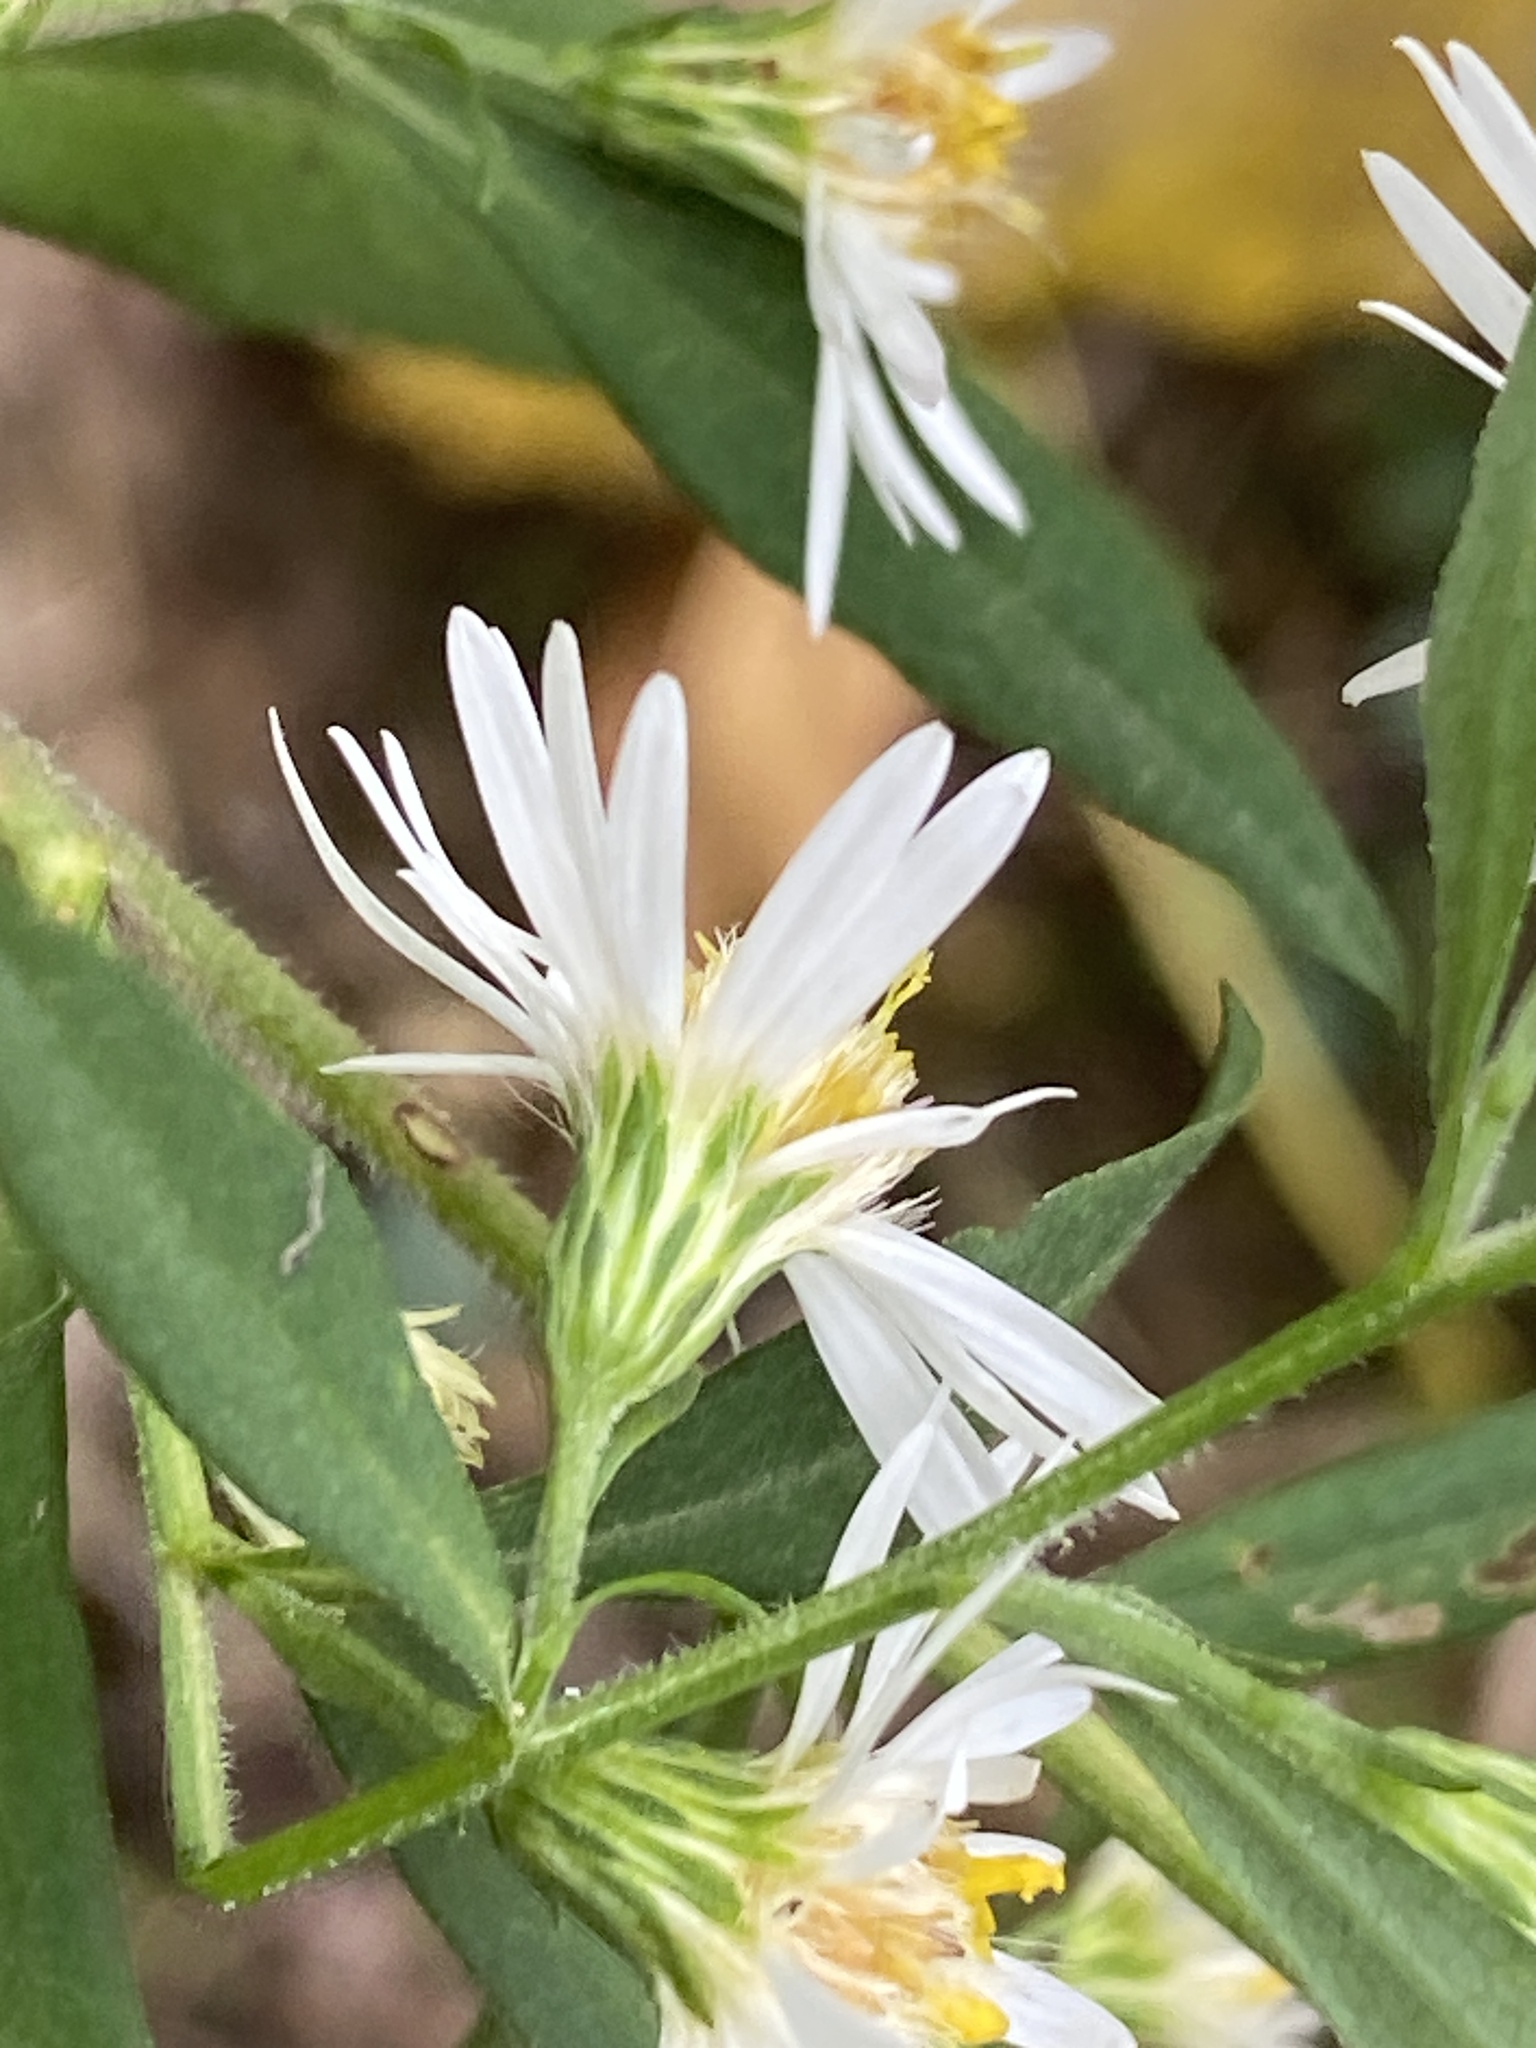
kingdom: Plantae
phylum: Tracheophyta
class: Magnoliopsida
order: Asterales
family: Asteraceae
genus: Symphyotrichum
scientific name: Symphyotrichum lanceolatum
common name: Panicled aster
